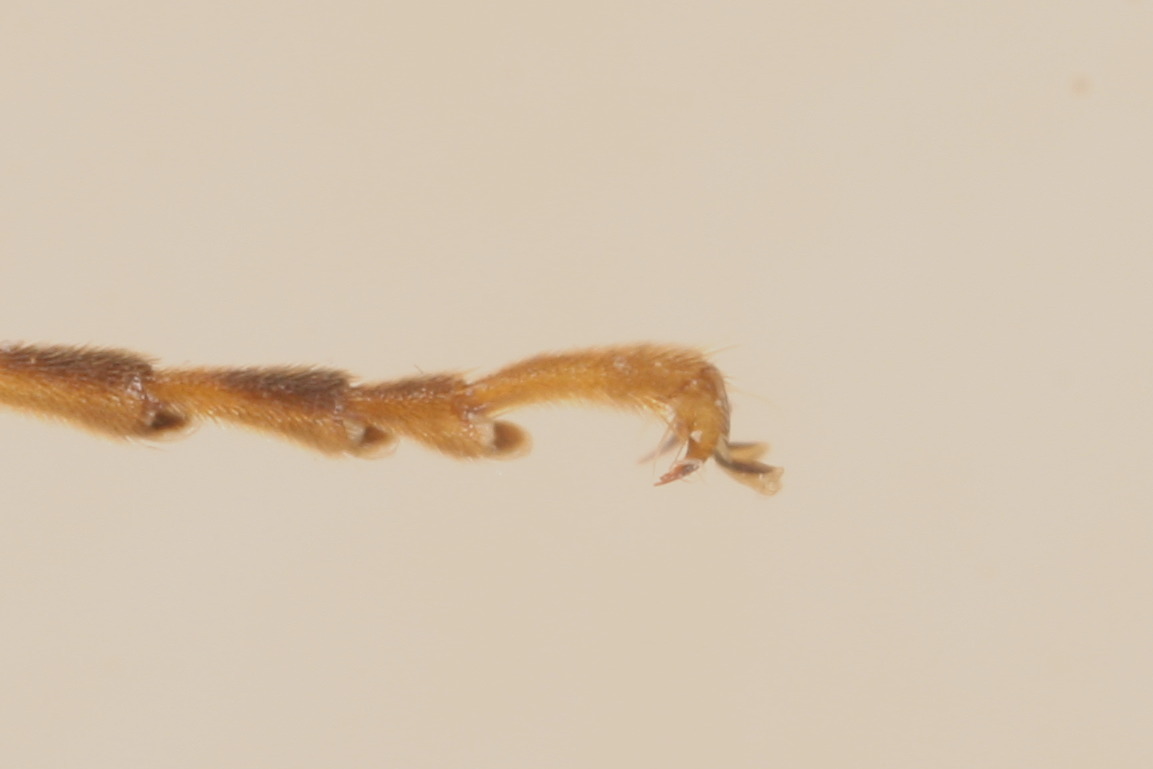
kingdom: Animalia
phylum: Arthropoda
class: Insecta
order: Hymenoptera
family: Tenthredinidae
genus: Tenthredo
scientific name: Tenthredo trabeata
